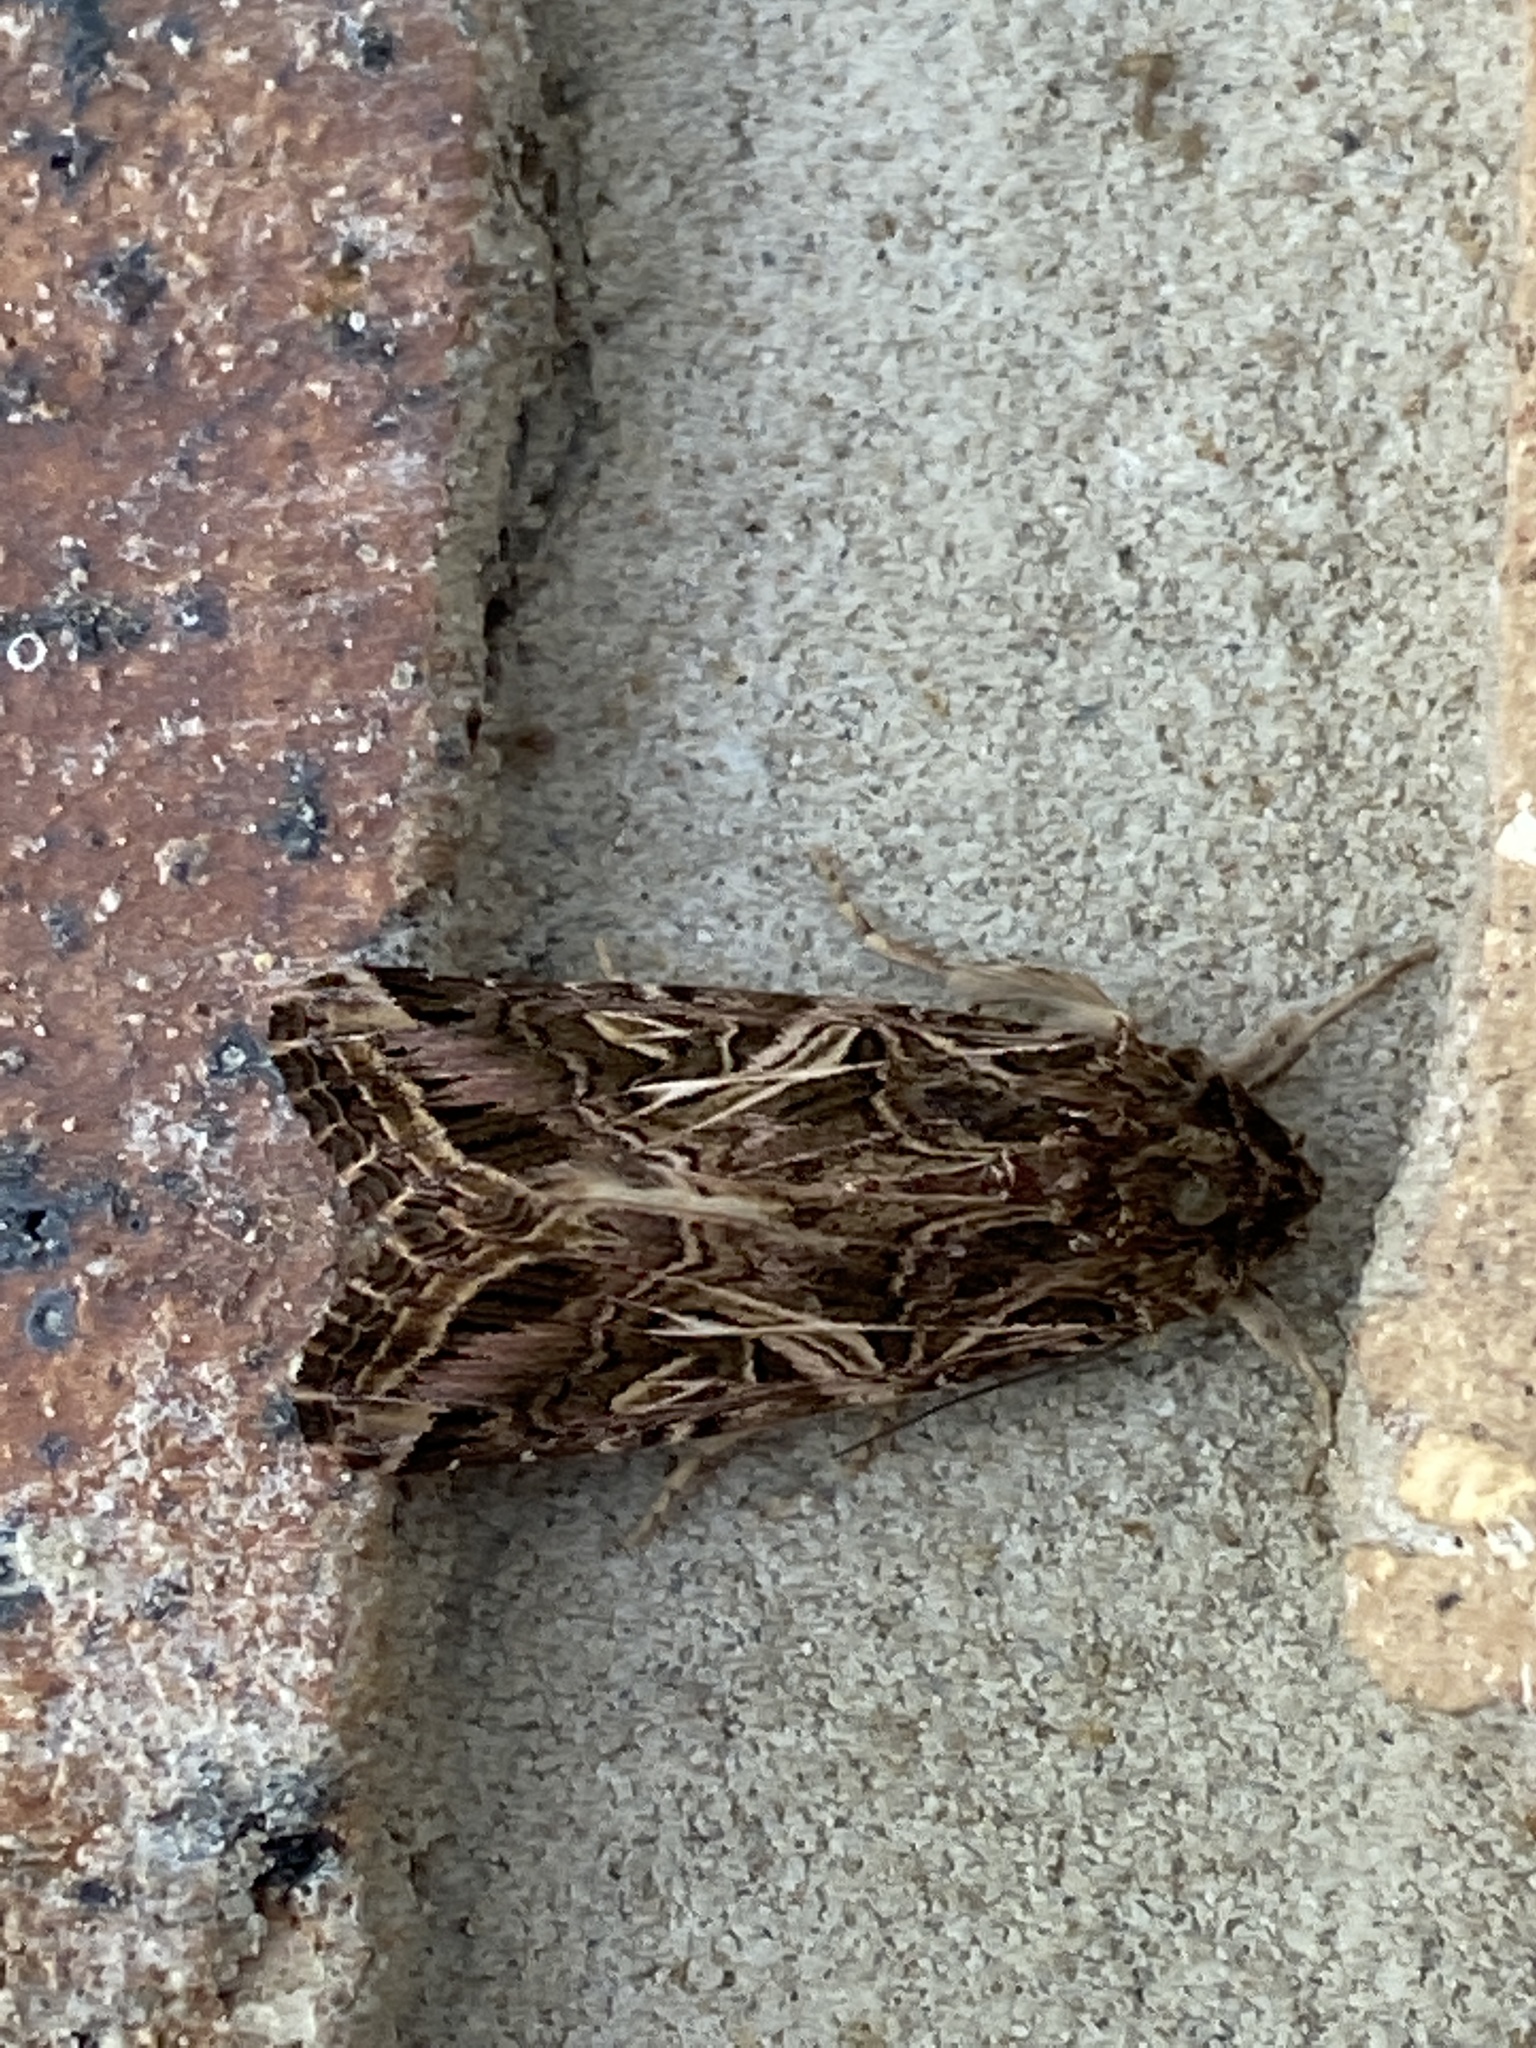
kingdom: Animalia
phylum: Arthropoda
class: Insecta
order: Lepidoptera
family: Noctuidae
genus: Spodoptera
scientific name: Spodoptera litura
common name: Asian cotton leafworm
